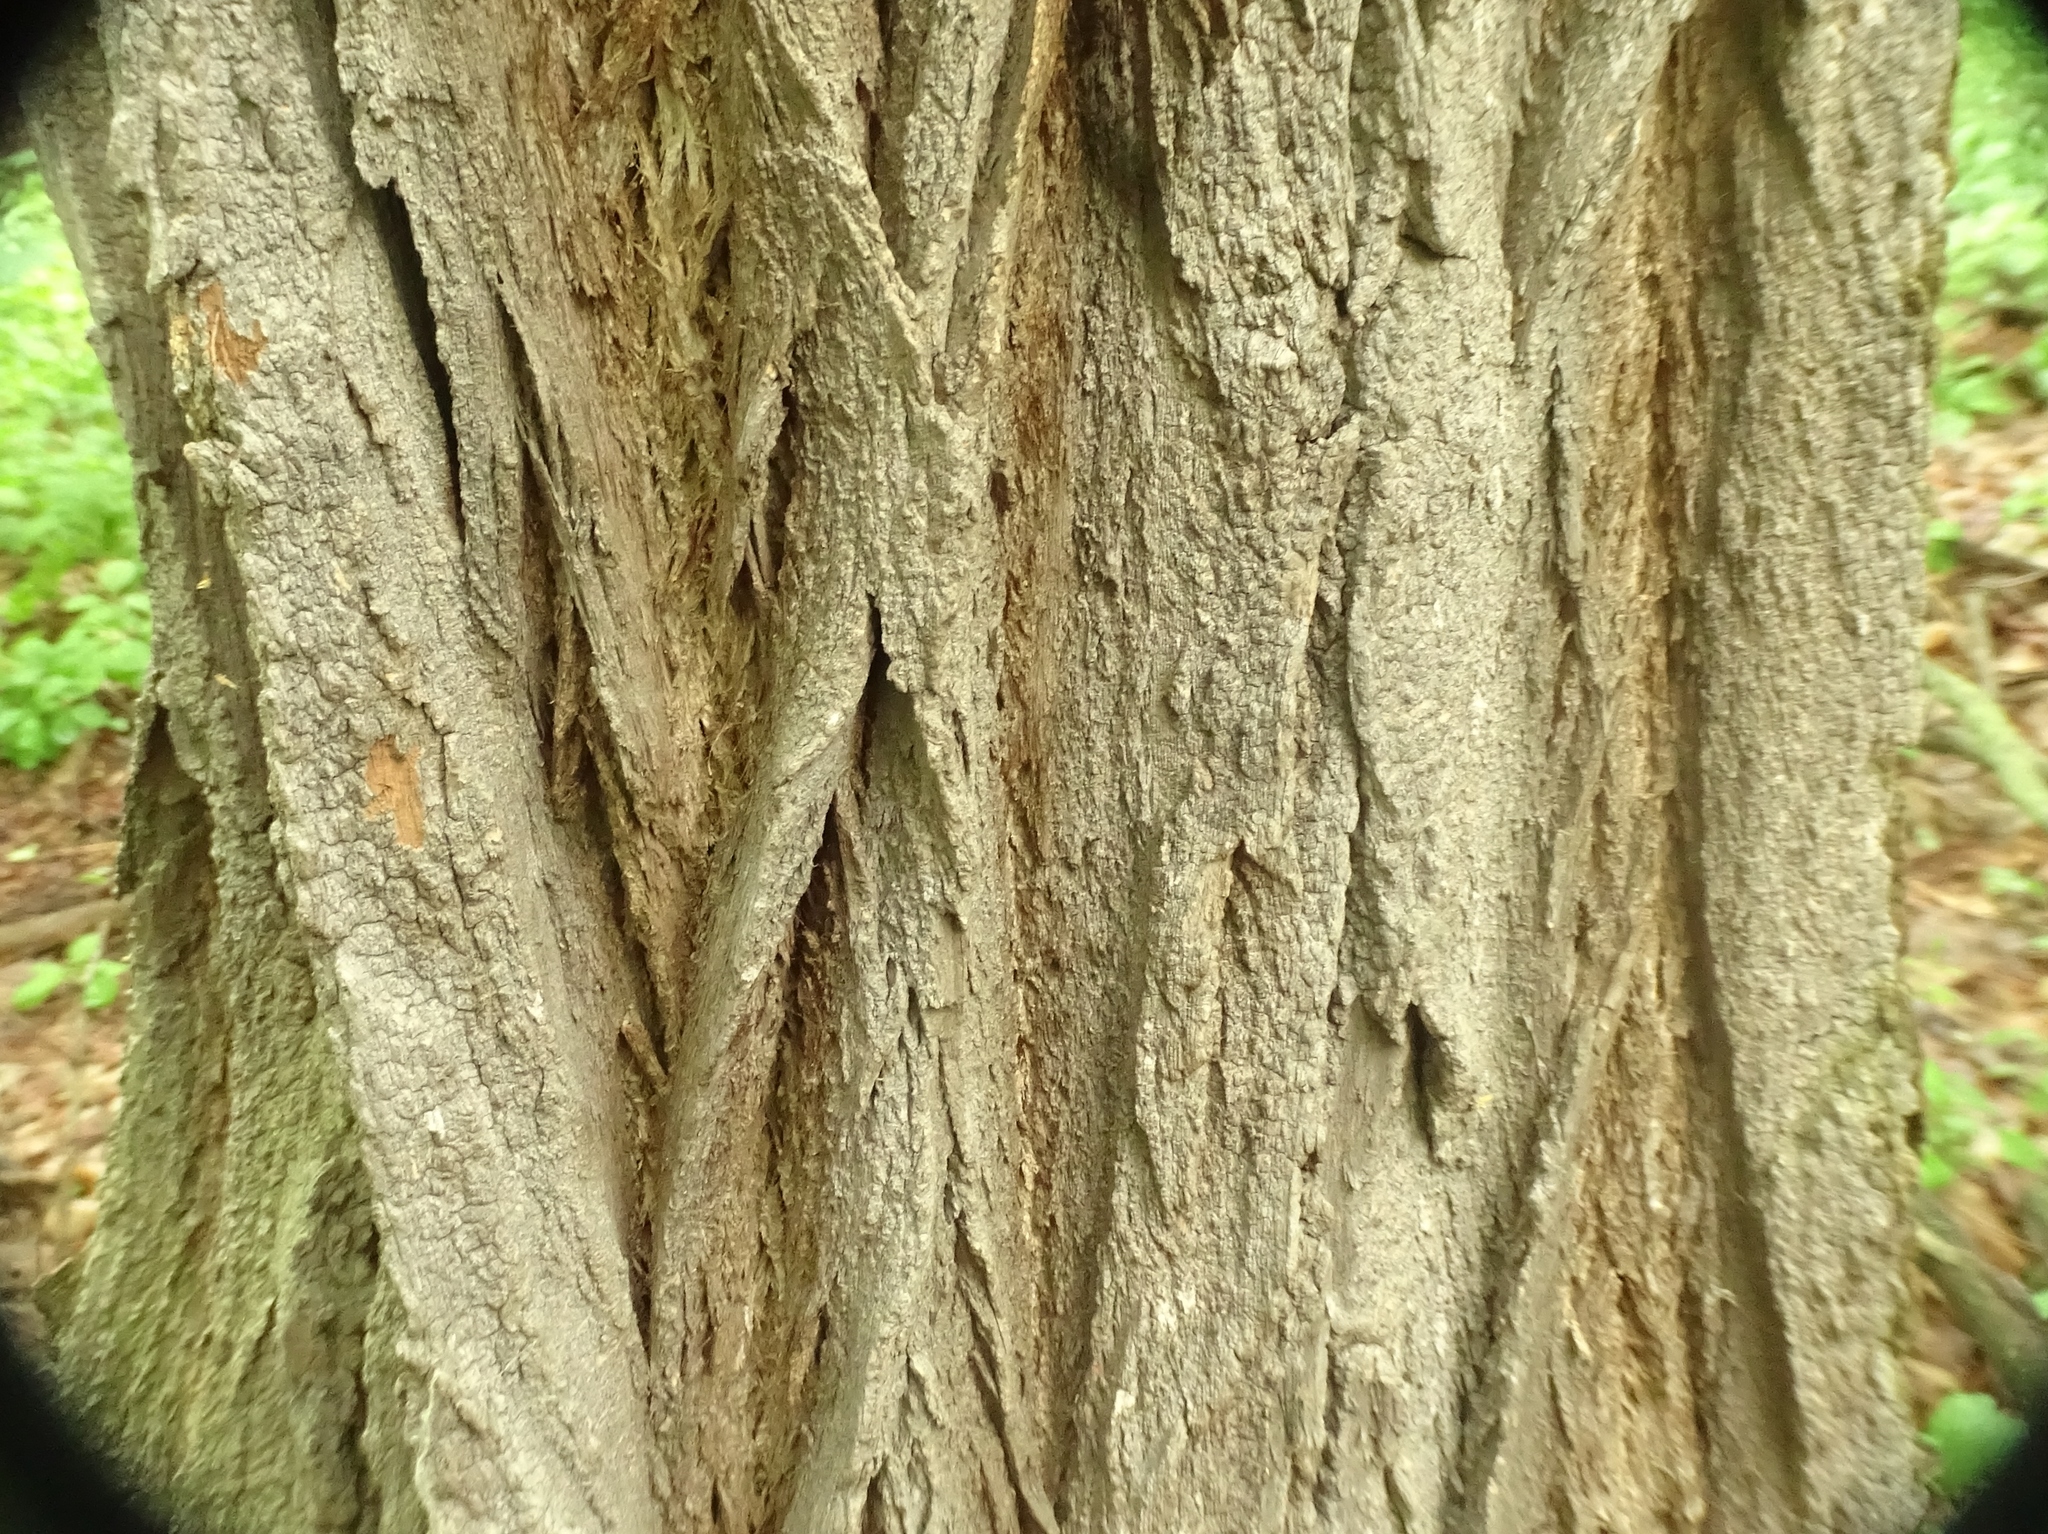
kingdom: Plantae
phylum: Tracheophyta
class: Magnoliopsida
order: Fabales
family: Fabaceae
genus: Robinia
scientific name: Robinia pseudoacacia
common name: Black locust
